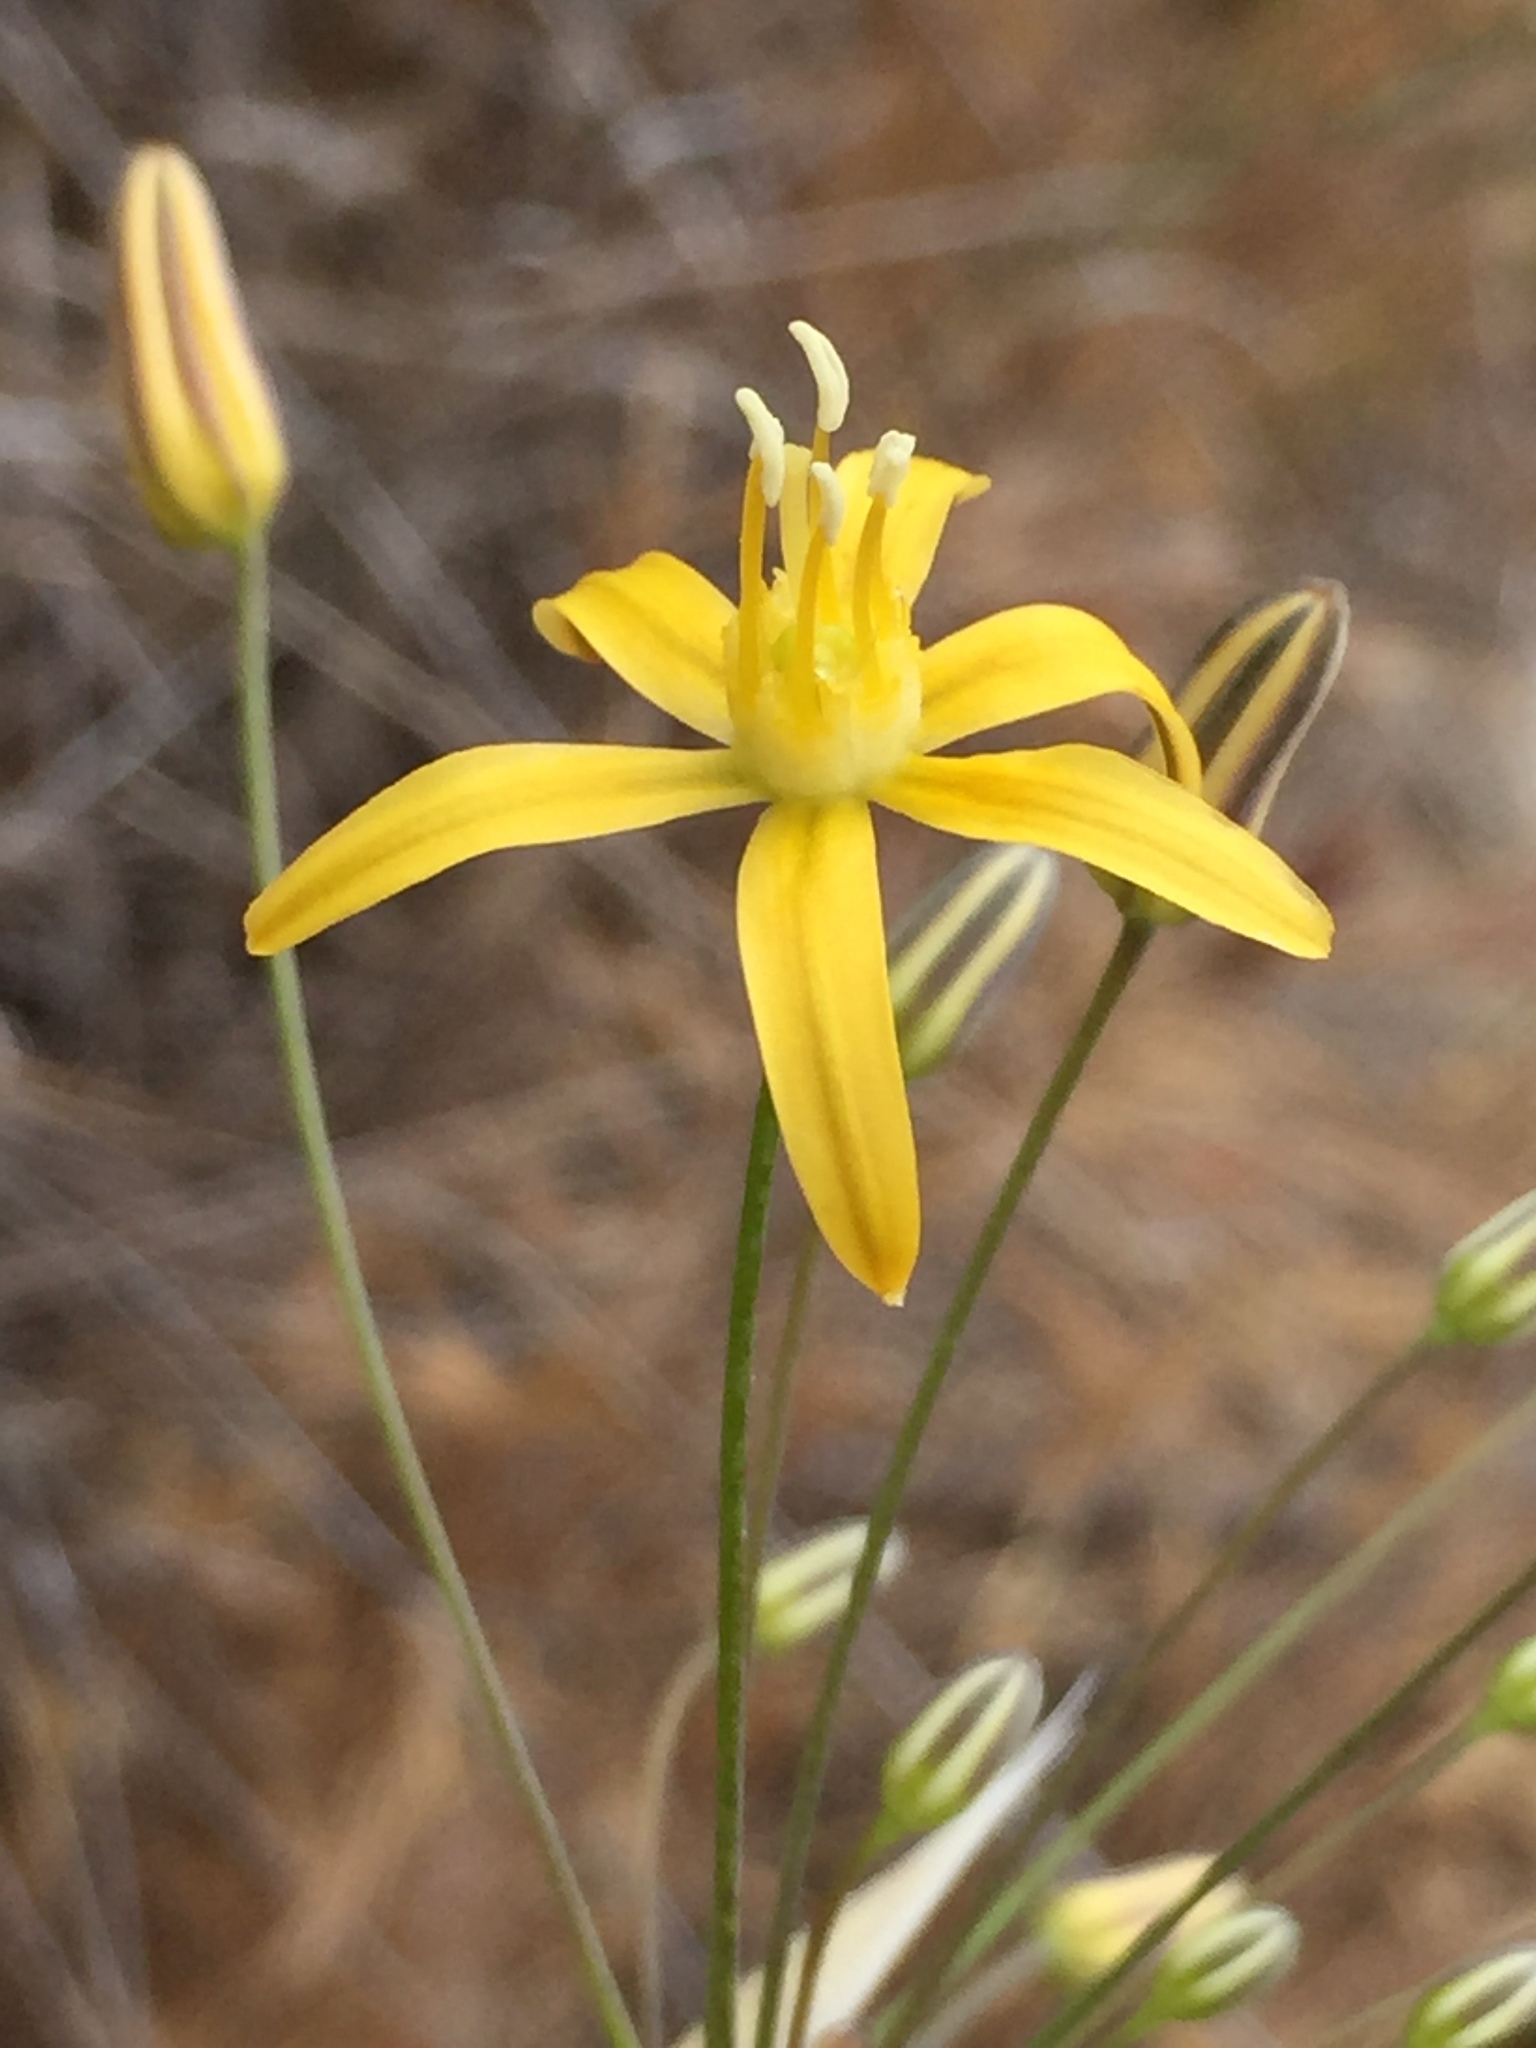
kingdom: Plantae
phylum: Tracheophyta
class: Liliopsida
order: Asparagales
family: Asparagaceae
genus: Bloomeria
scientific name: Bloomeria crocea
